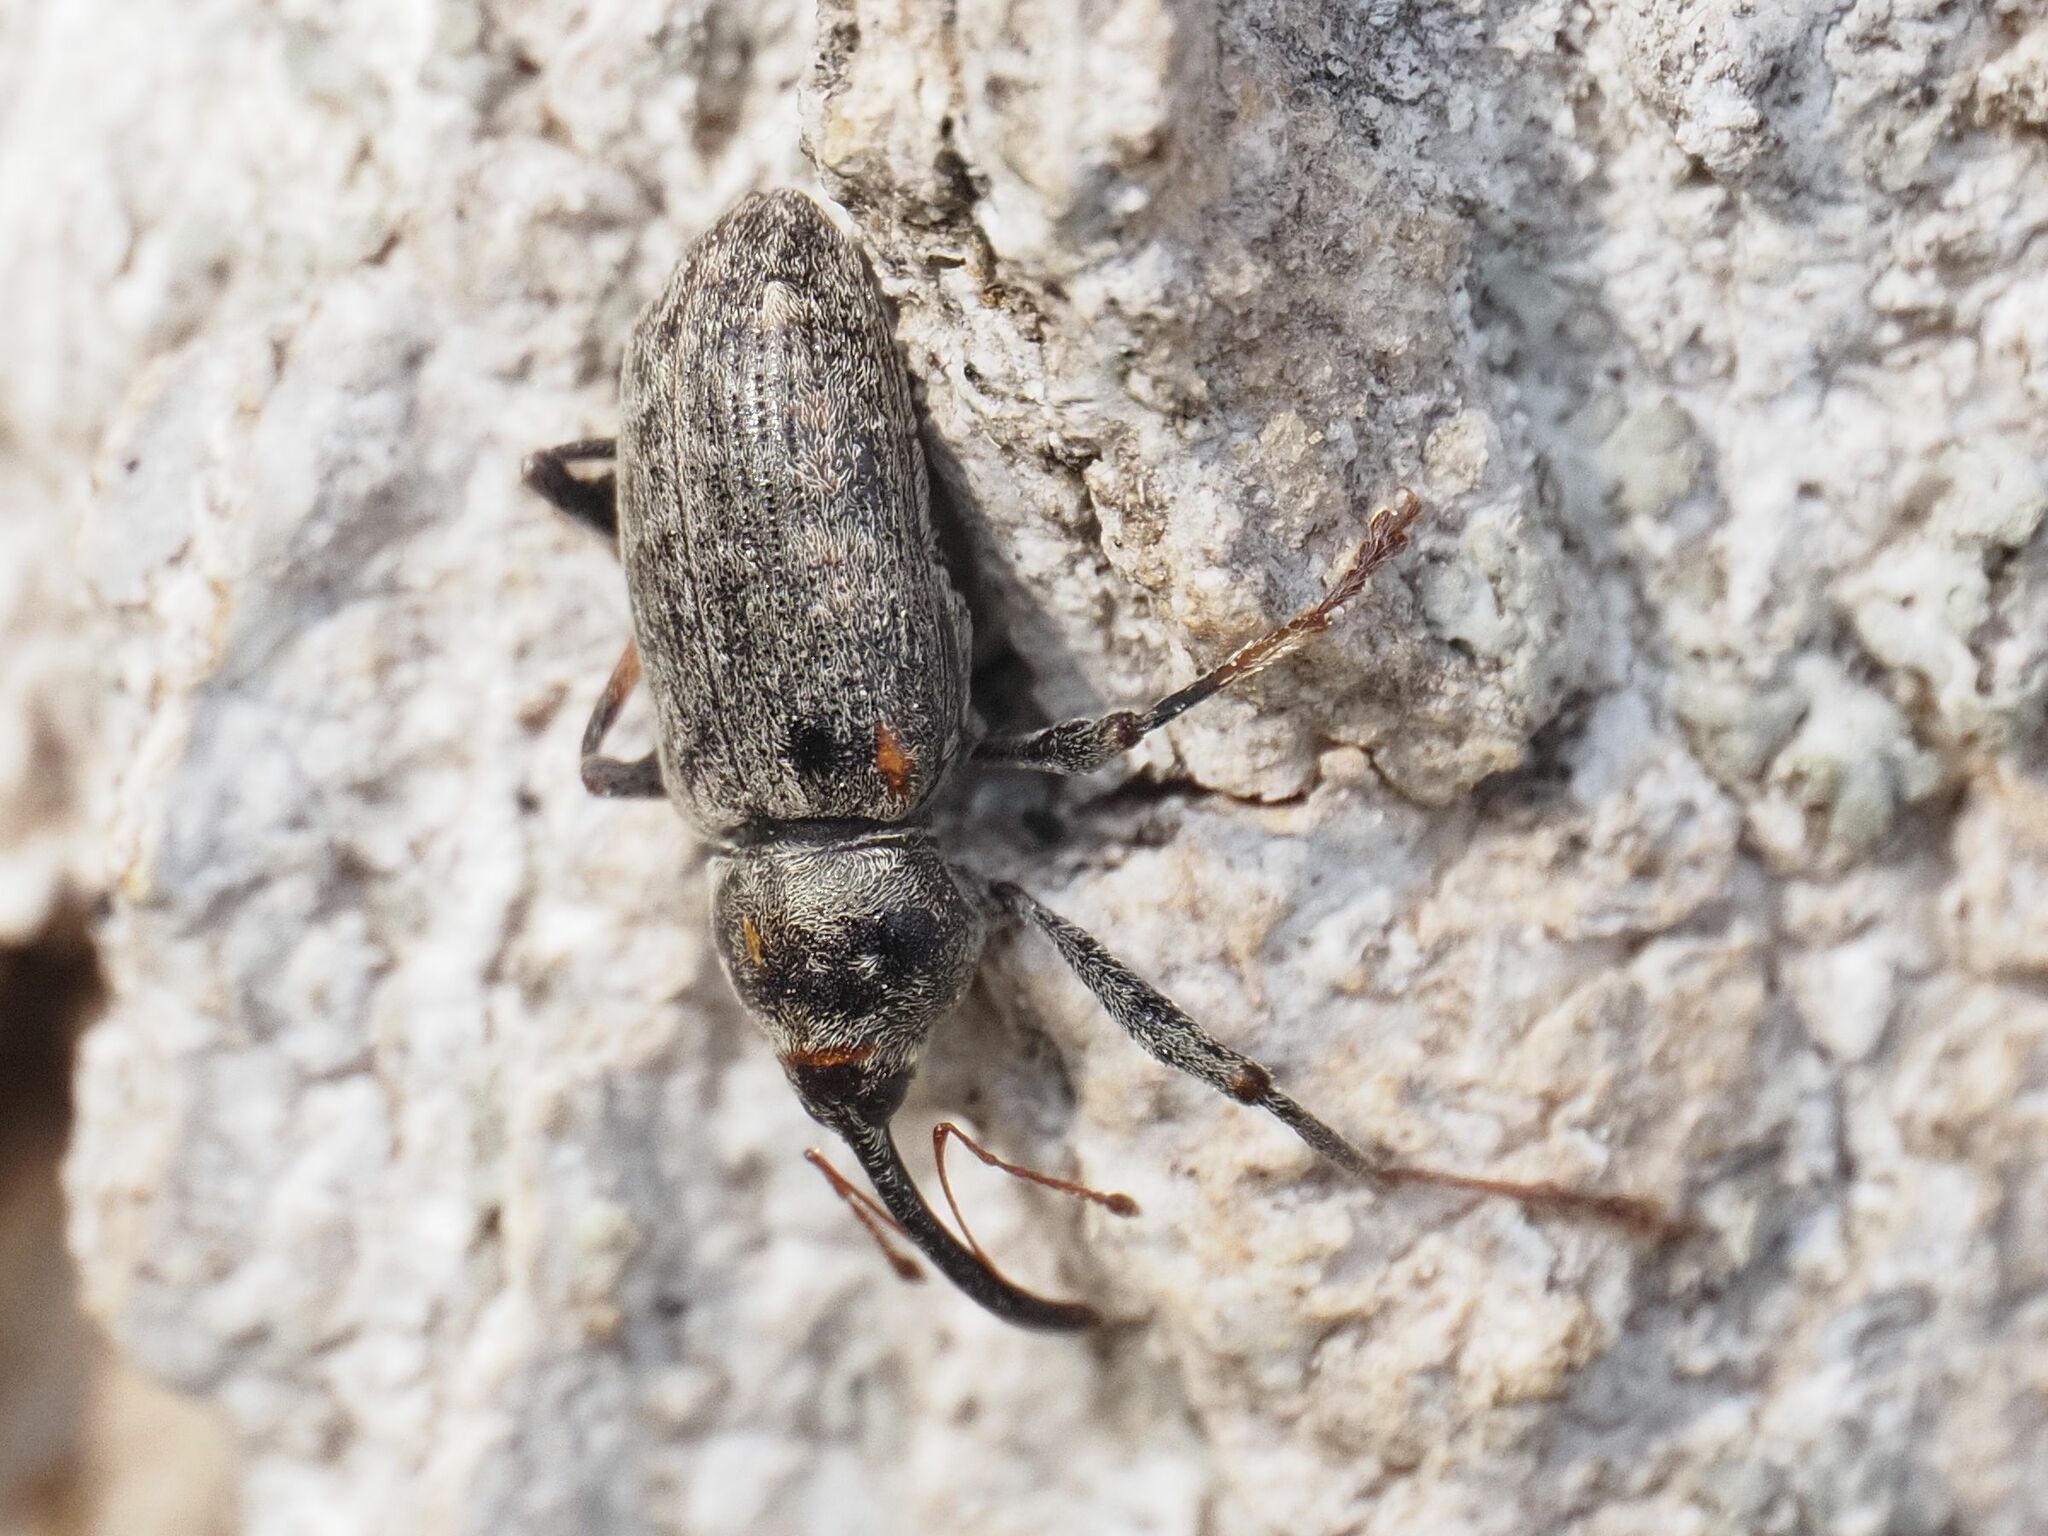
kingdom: Animalia
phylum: Arthropoda
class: Insecta
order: Coleoptera
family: Curculionidae
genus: Dorytomus
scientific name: Dorytomus longimanus
